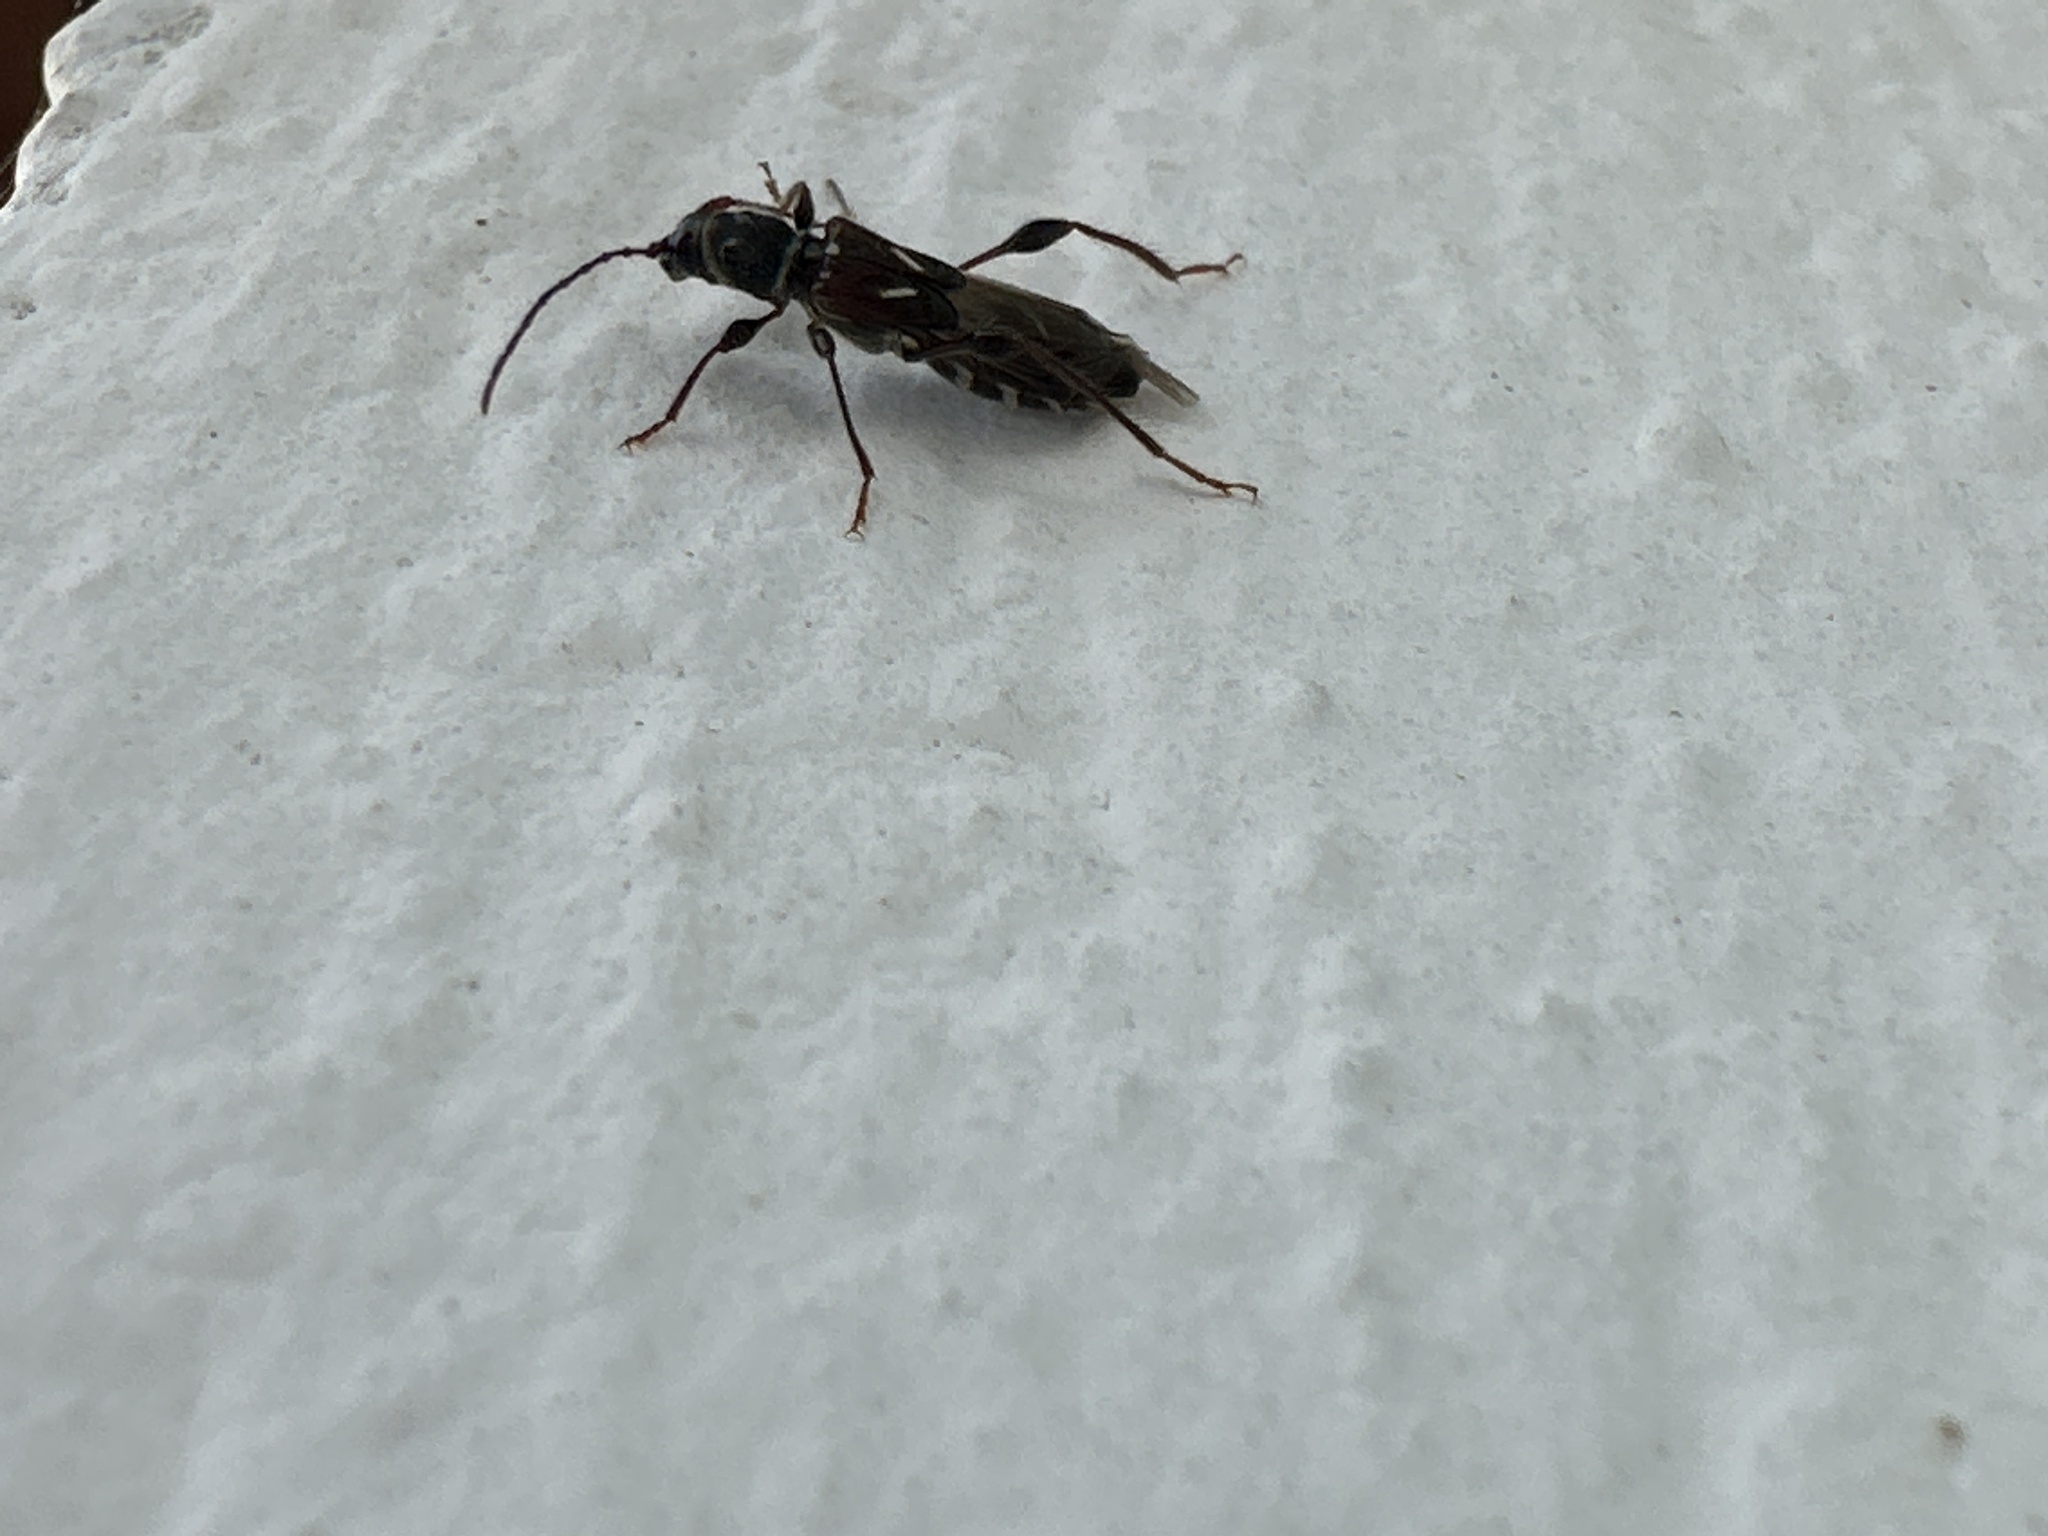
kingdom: Animalia
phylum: Arthropoda
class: Insecta
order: Coleoptera
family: Cerambycidae
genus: Molorchus
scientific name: Molorchus minor
